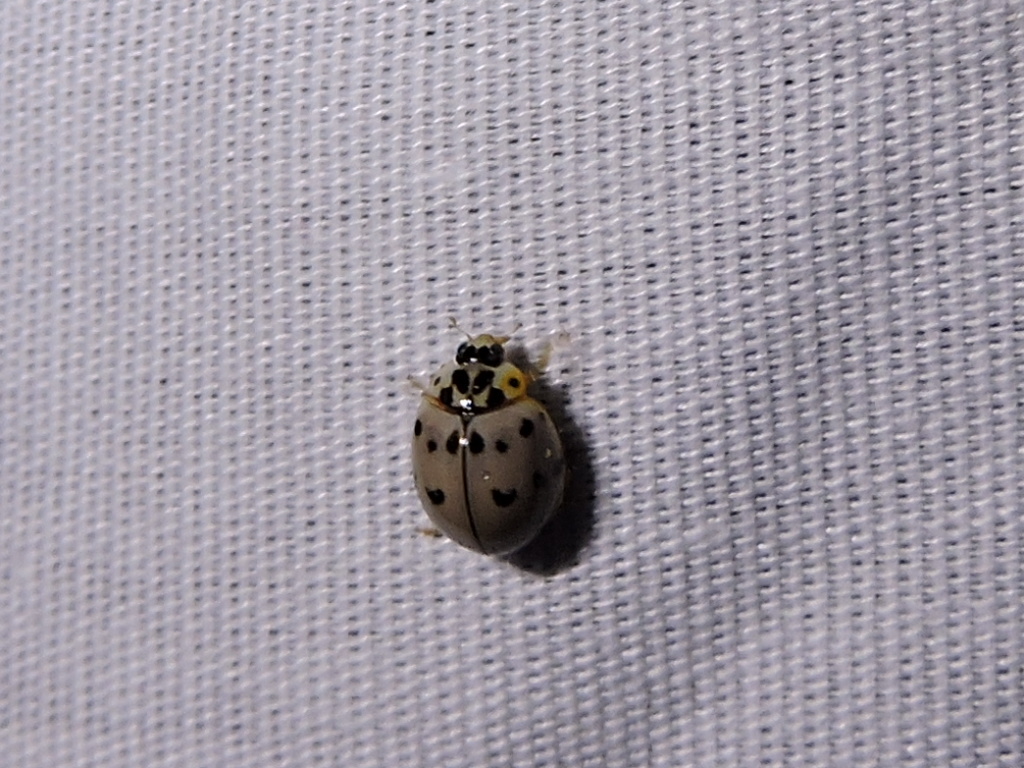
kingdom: Animalia
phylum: Arthropoda
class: Insecta
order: Coleoptera
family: Coccinellidae
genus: Olla
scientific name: Olla v-nigrum
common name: Ashy gray lady beetle
